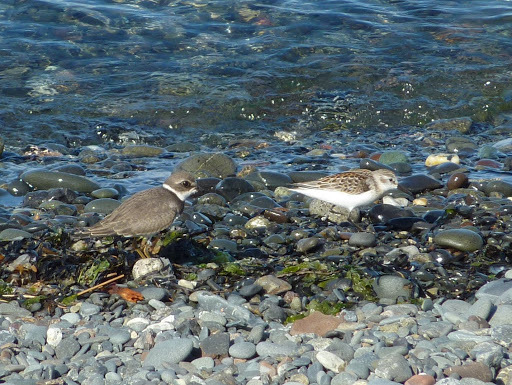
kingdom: Animalia
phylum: Chordata
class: Aves
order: Charadriiformes
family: Scolopacidae
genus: Calidris
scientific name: Calidris mauri
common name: Western sandpiper
